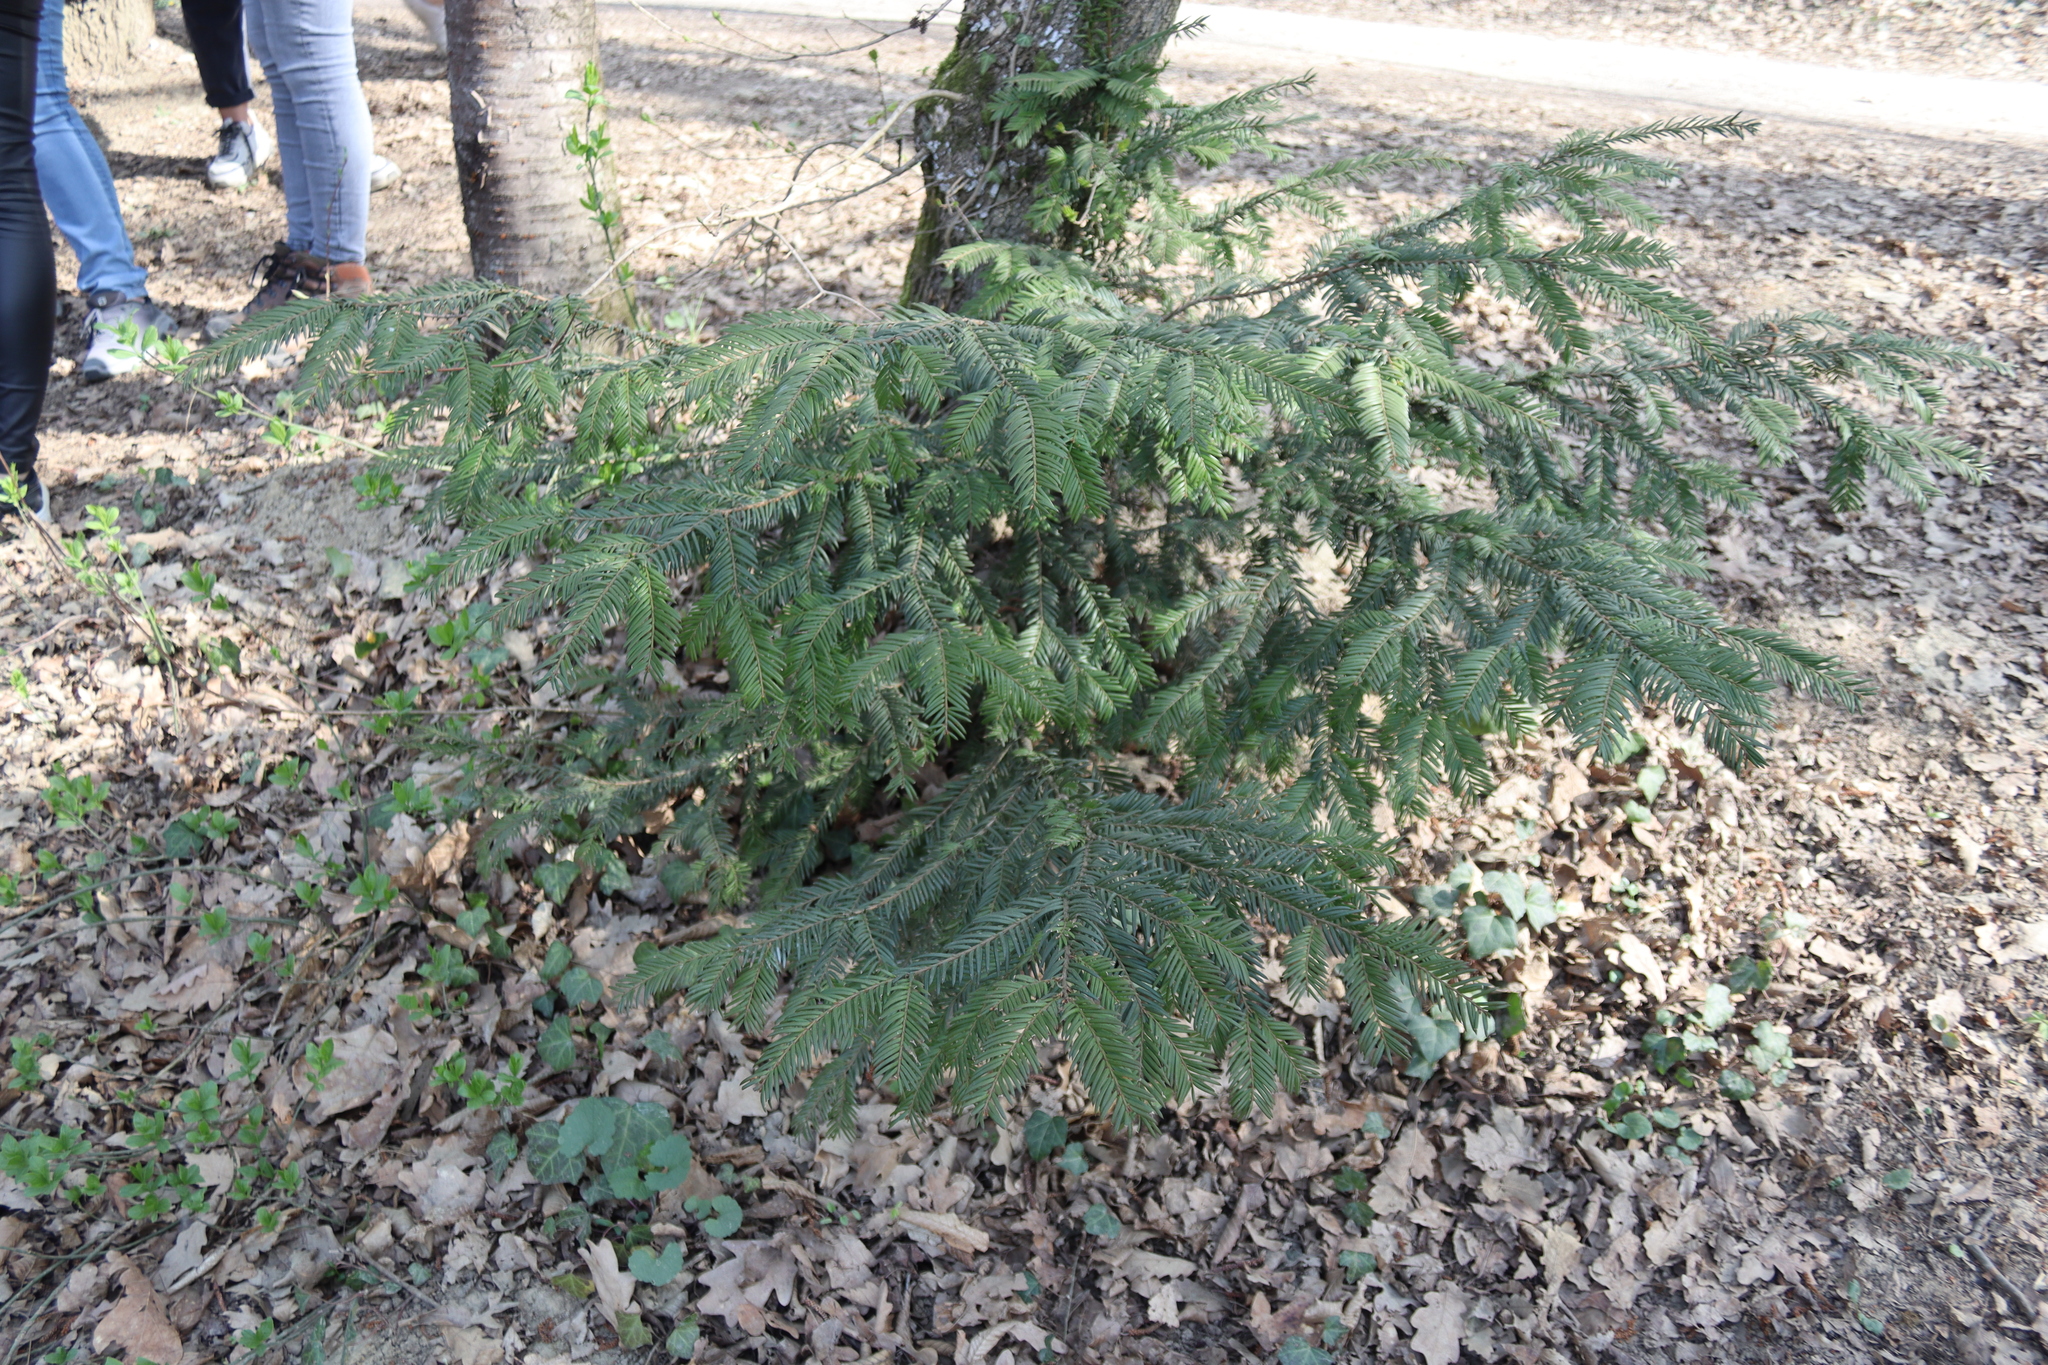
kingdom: Plantae
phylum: Tracheophyta
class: Pinopsida
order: Pinales
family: Taxaceae
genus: Taxus
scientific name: Taxus baccata
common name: Yew
